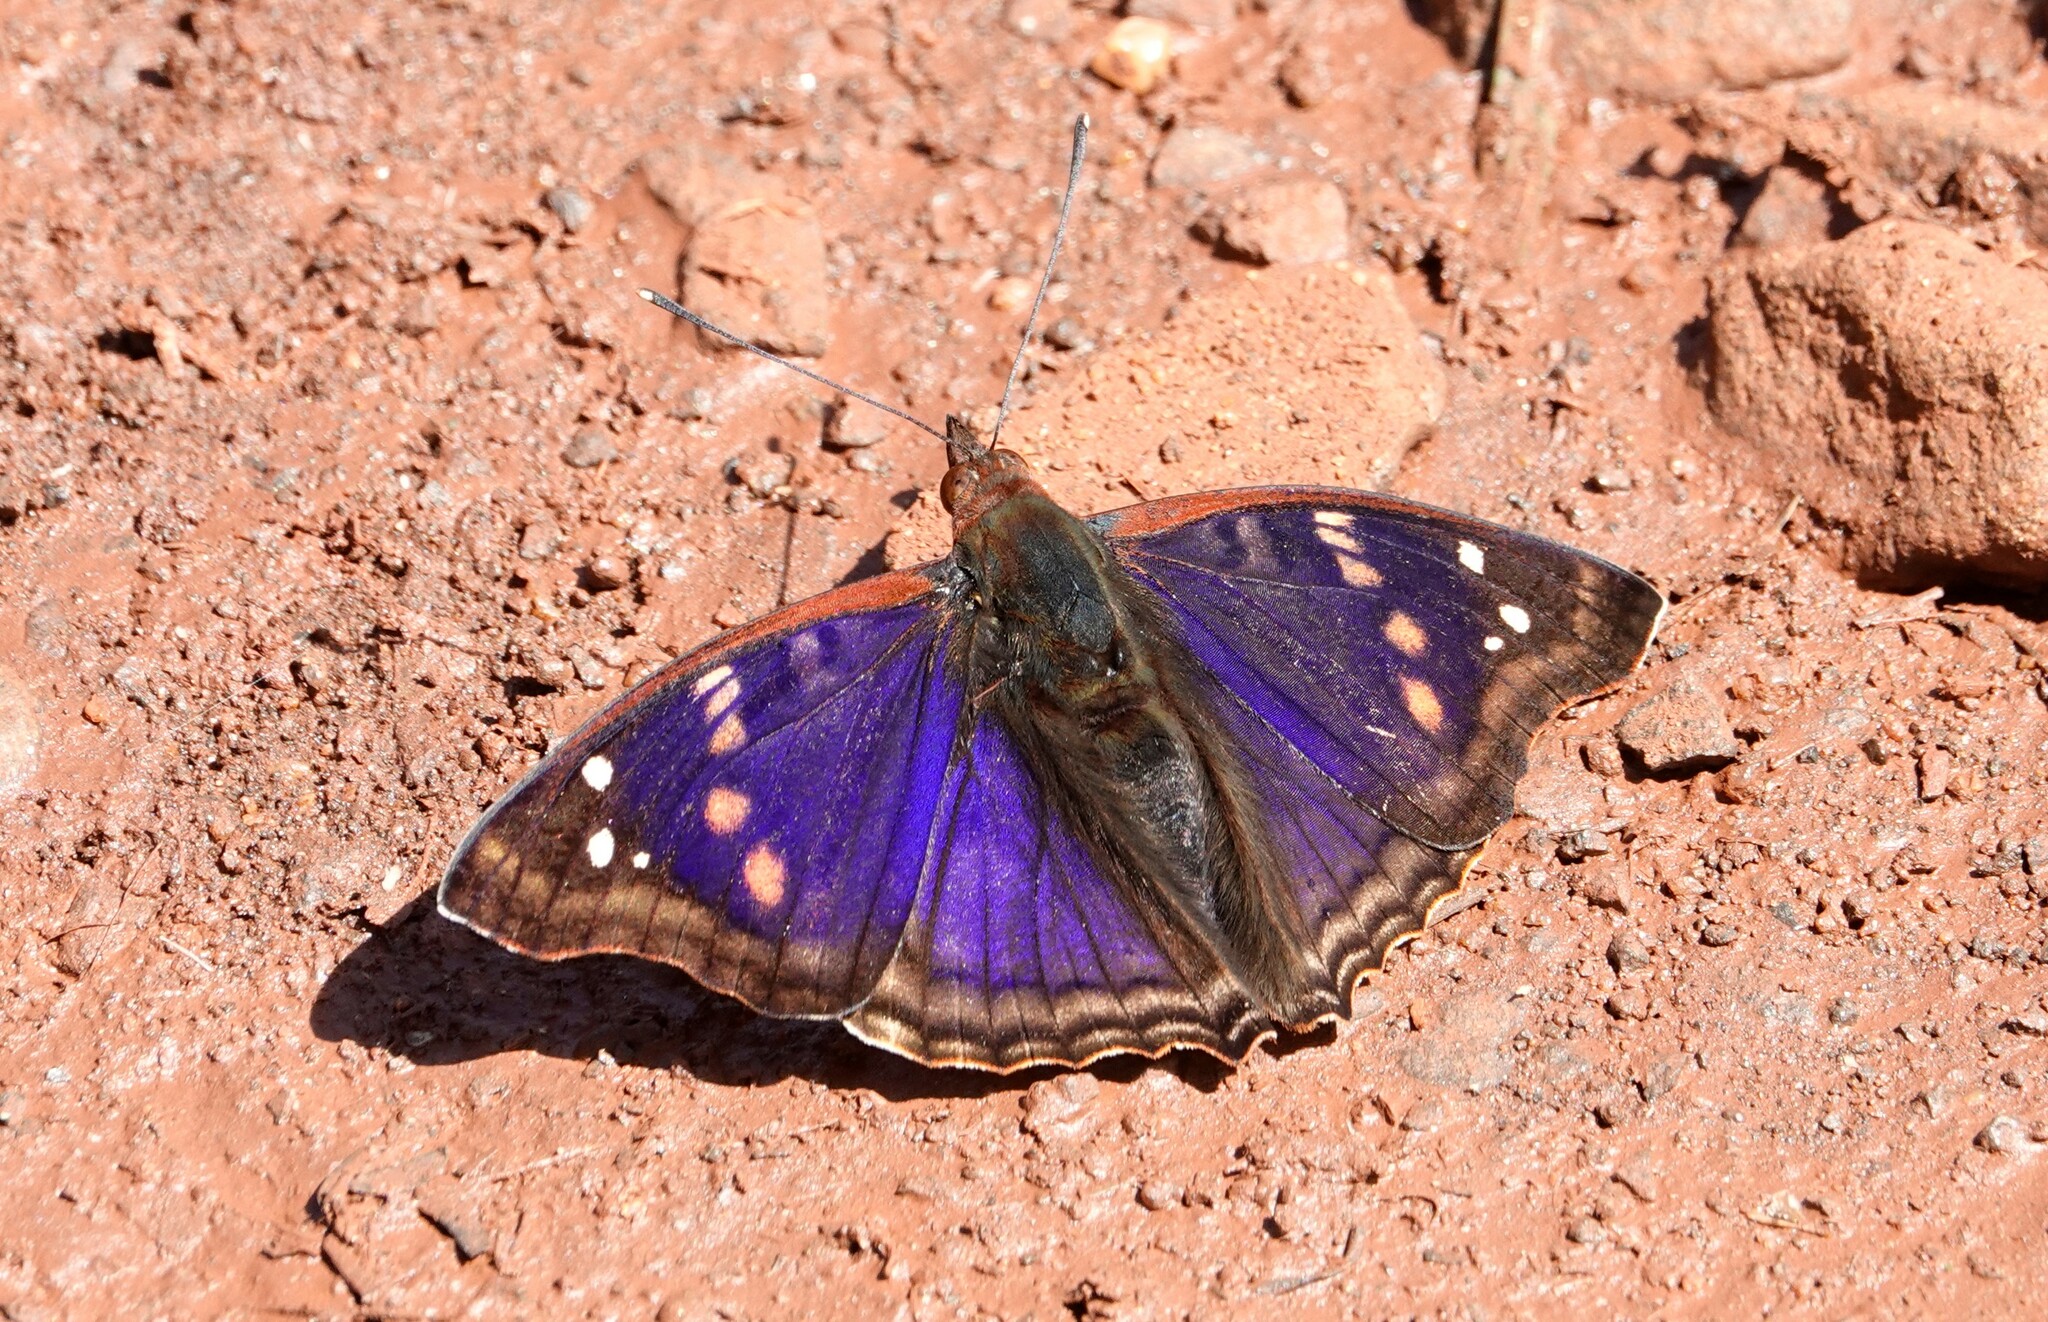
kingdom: Animalia
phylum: Arthropoda
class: Insecta
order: Lepidoptera
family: Nymphalidae
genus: Doxocopa
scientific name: Doxocopa agathina
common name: Agathina emperor
